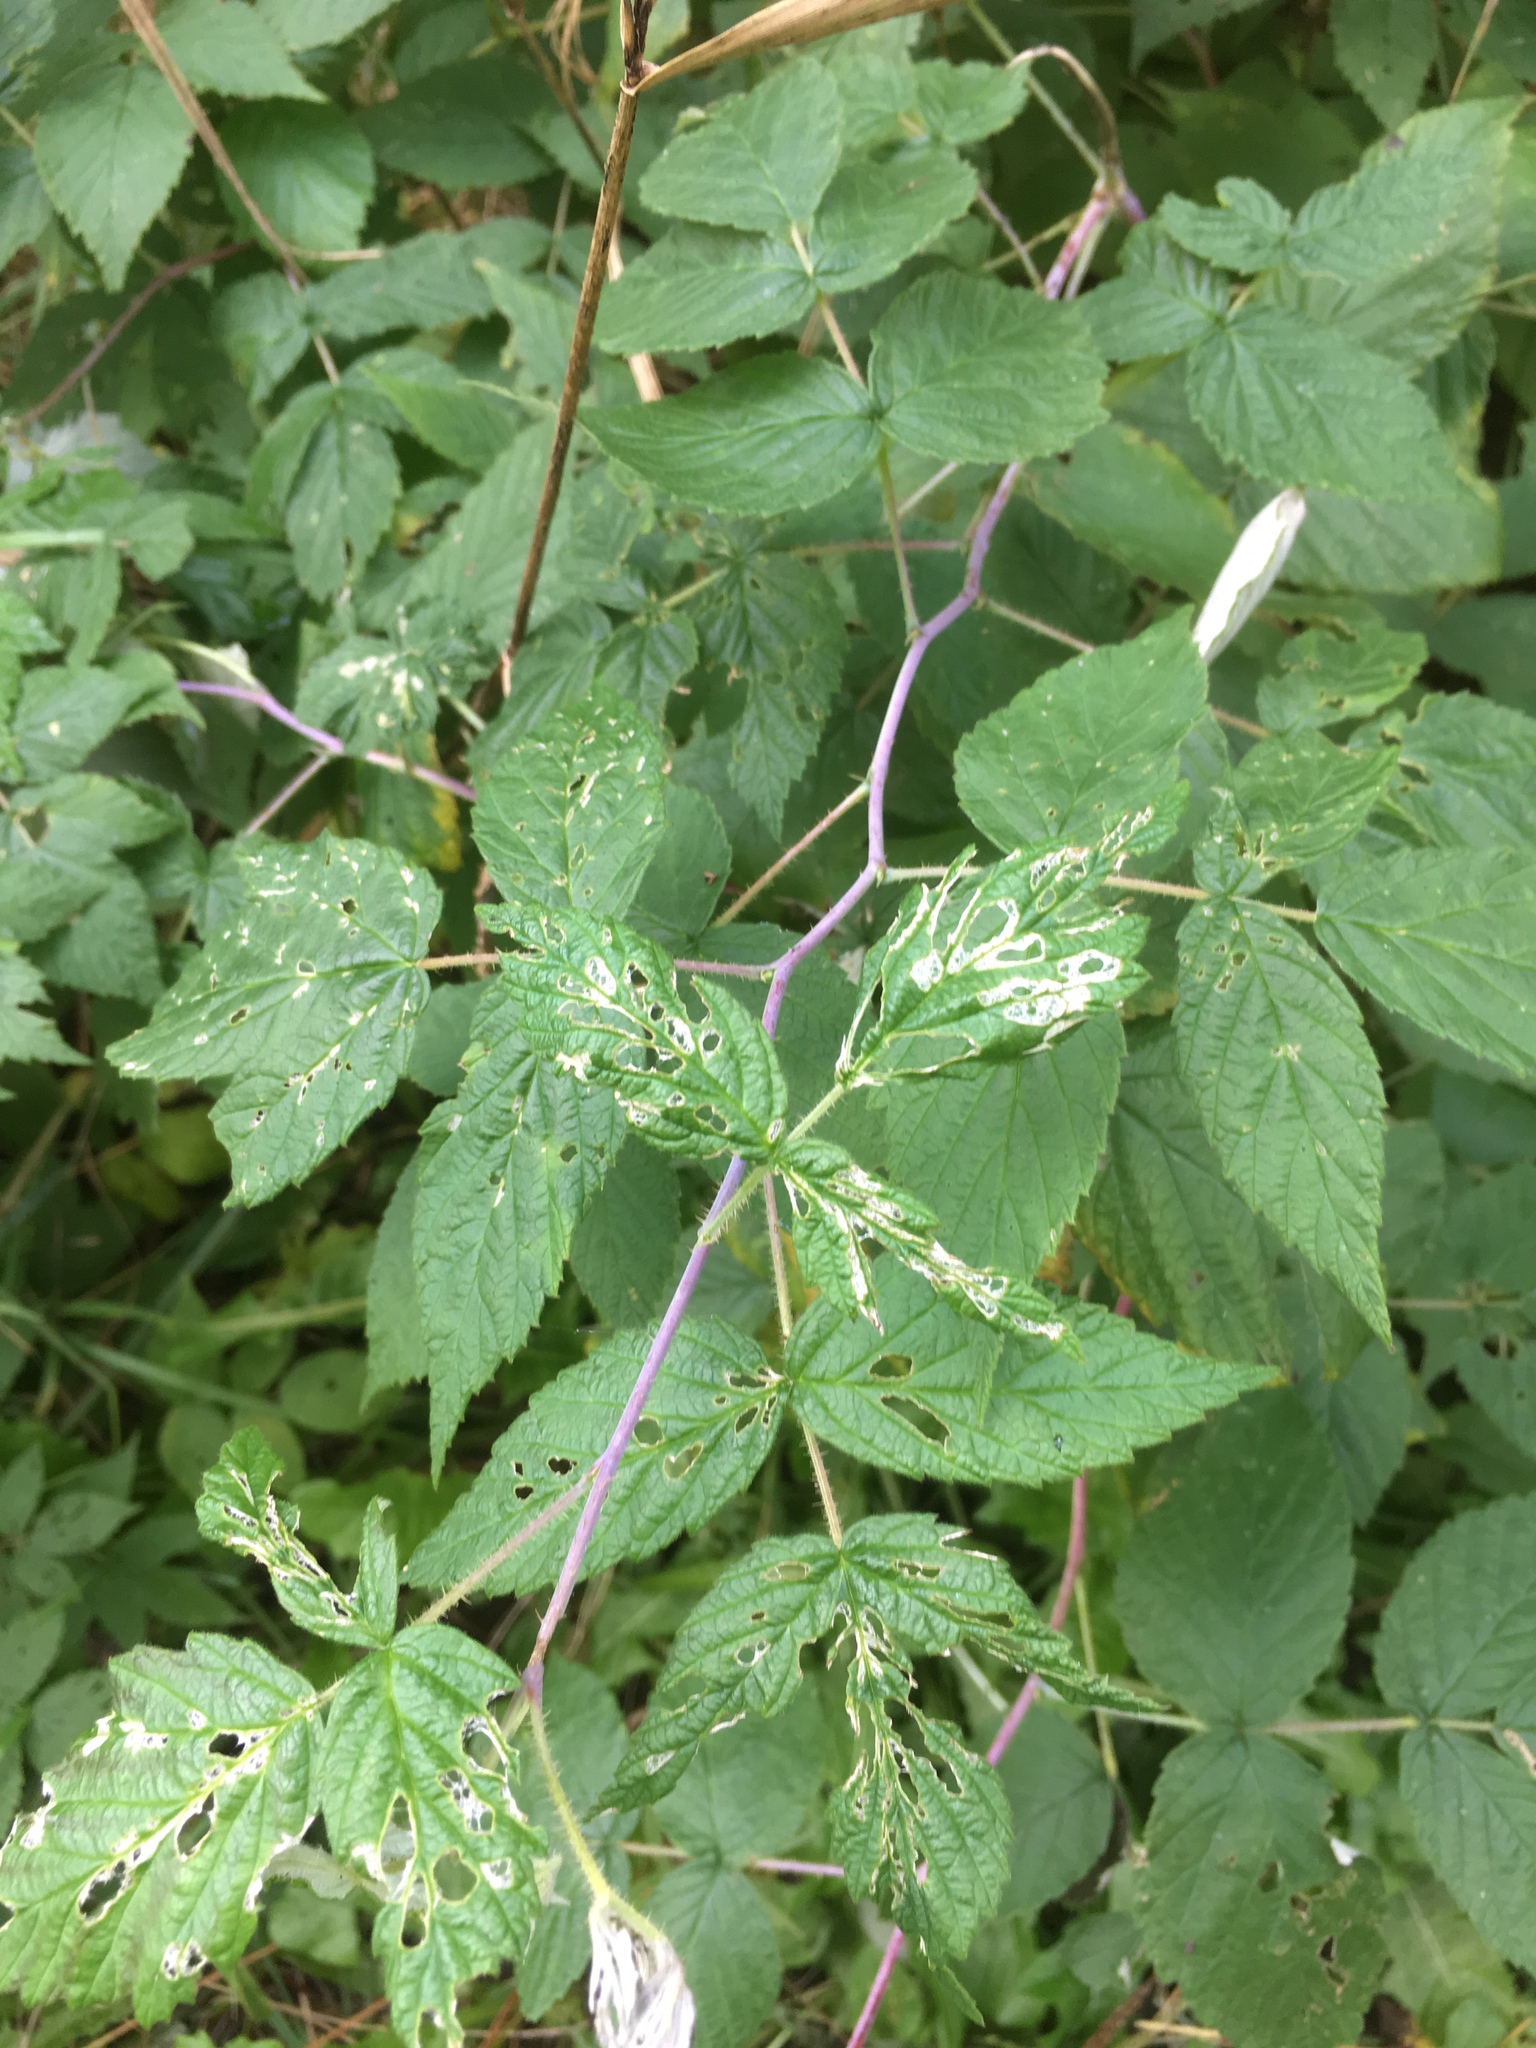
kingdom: Plantae
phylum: Tracheophyta
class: Magnoliopsida
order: Rosales
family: Rosaceae
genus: Rubus
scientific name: Rubus occidentalis
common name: Black raspberry
